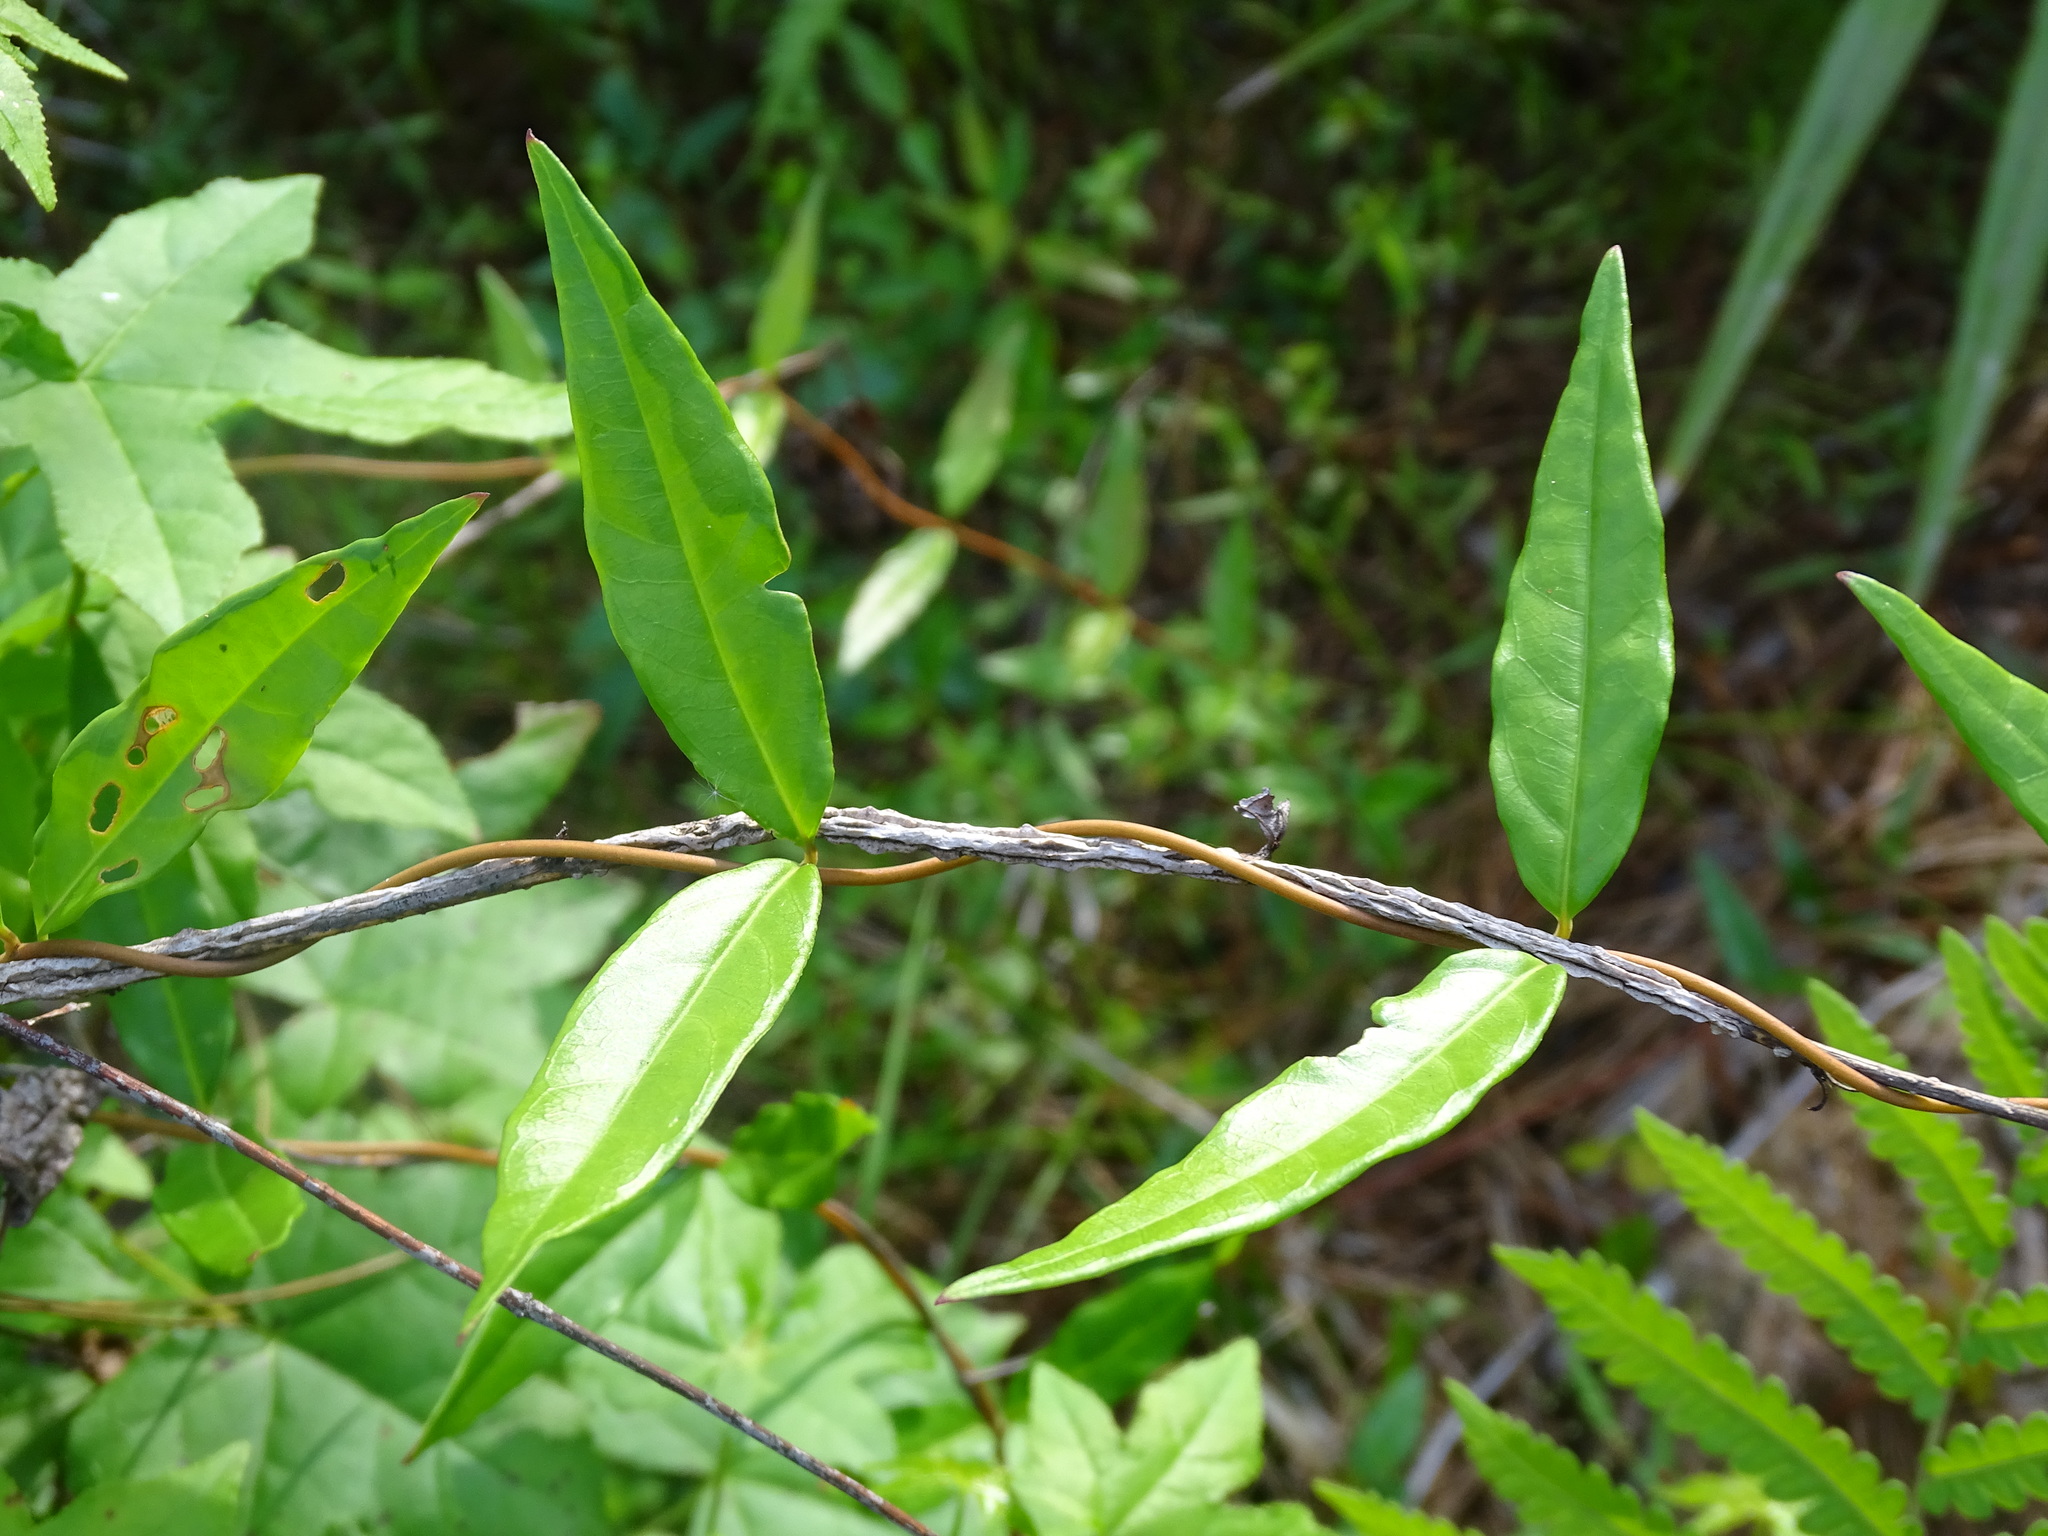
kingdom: Plantae
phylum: Tracheophyta
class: Magnoliopsida
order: Gentianales
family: Gelsemiaceae
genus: Gelsemium
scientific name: Gelsemium sempervirens
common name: Carolina-jasmine
